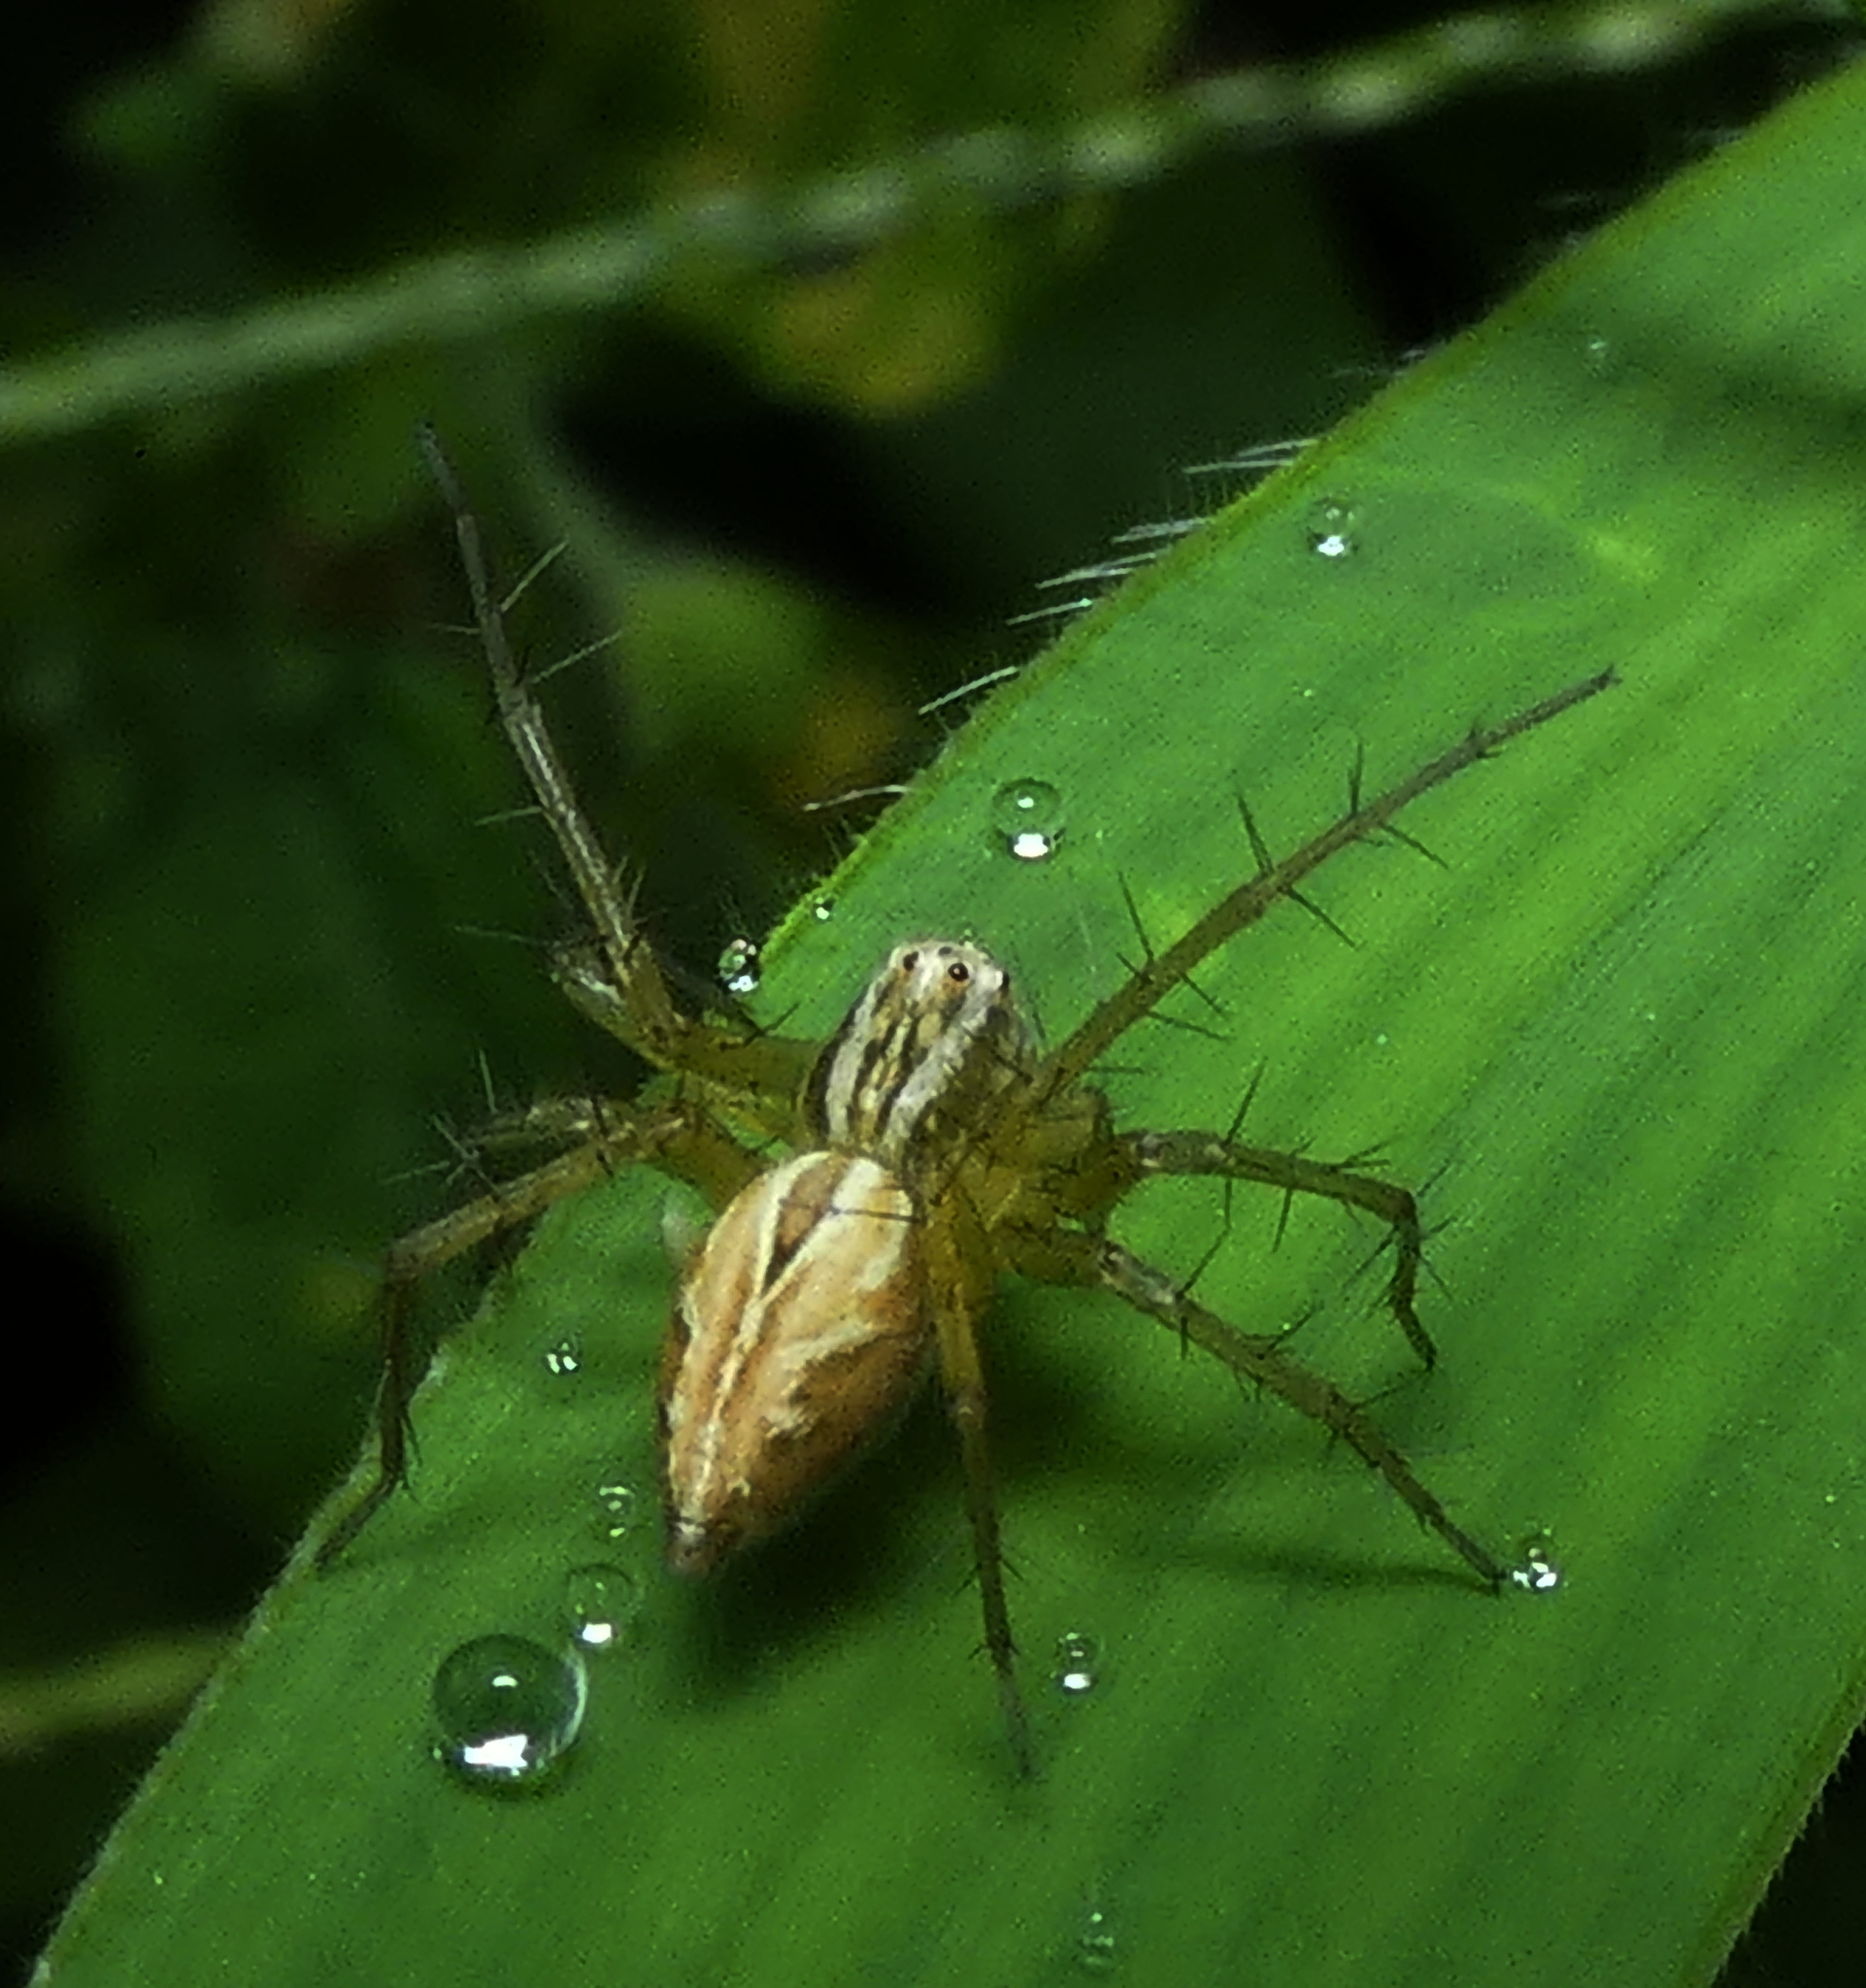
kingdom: Animalia
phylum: Arthropoda
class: Arachnida
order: Araneae
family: Oxyopidae
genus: Oxyopes
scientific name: Oxyopes salticus
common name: Lynx spiders
